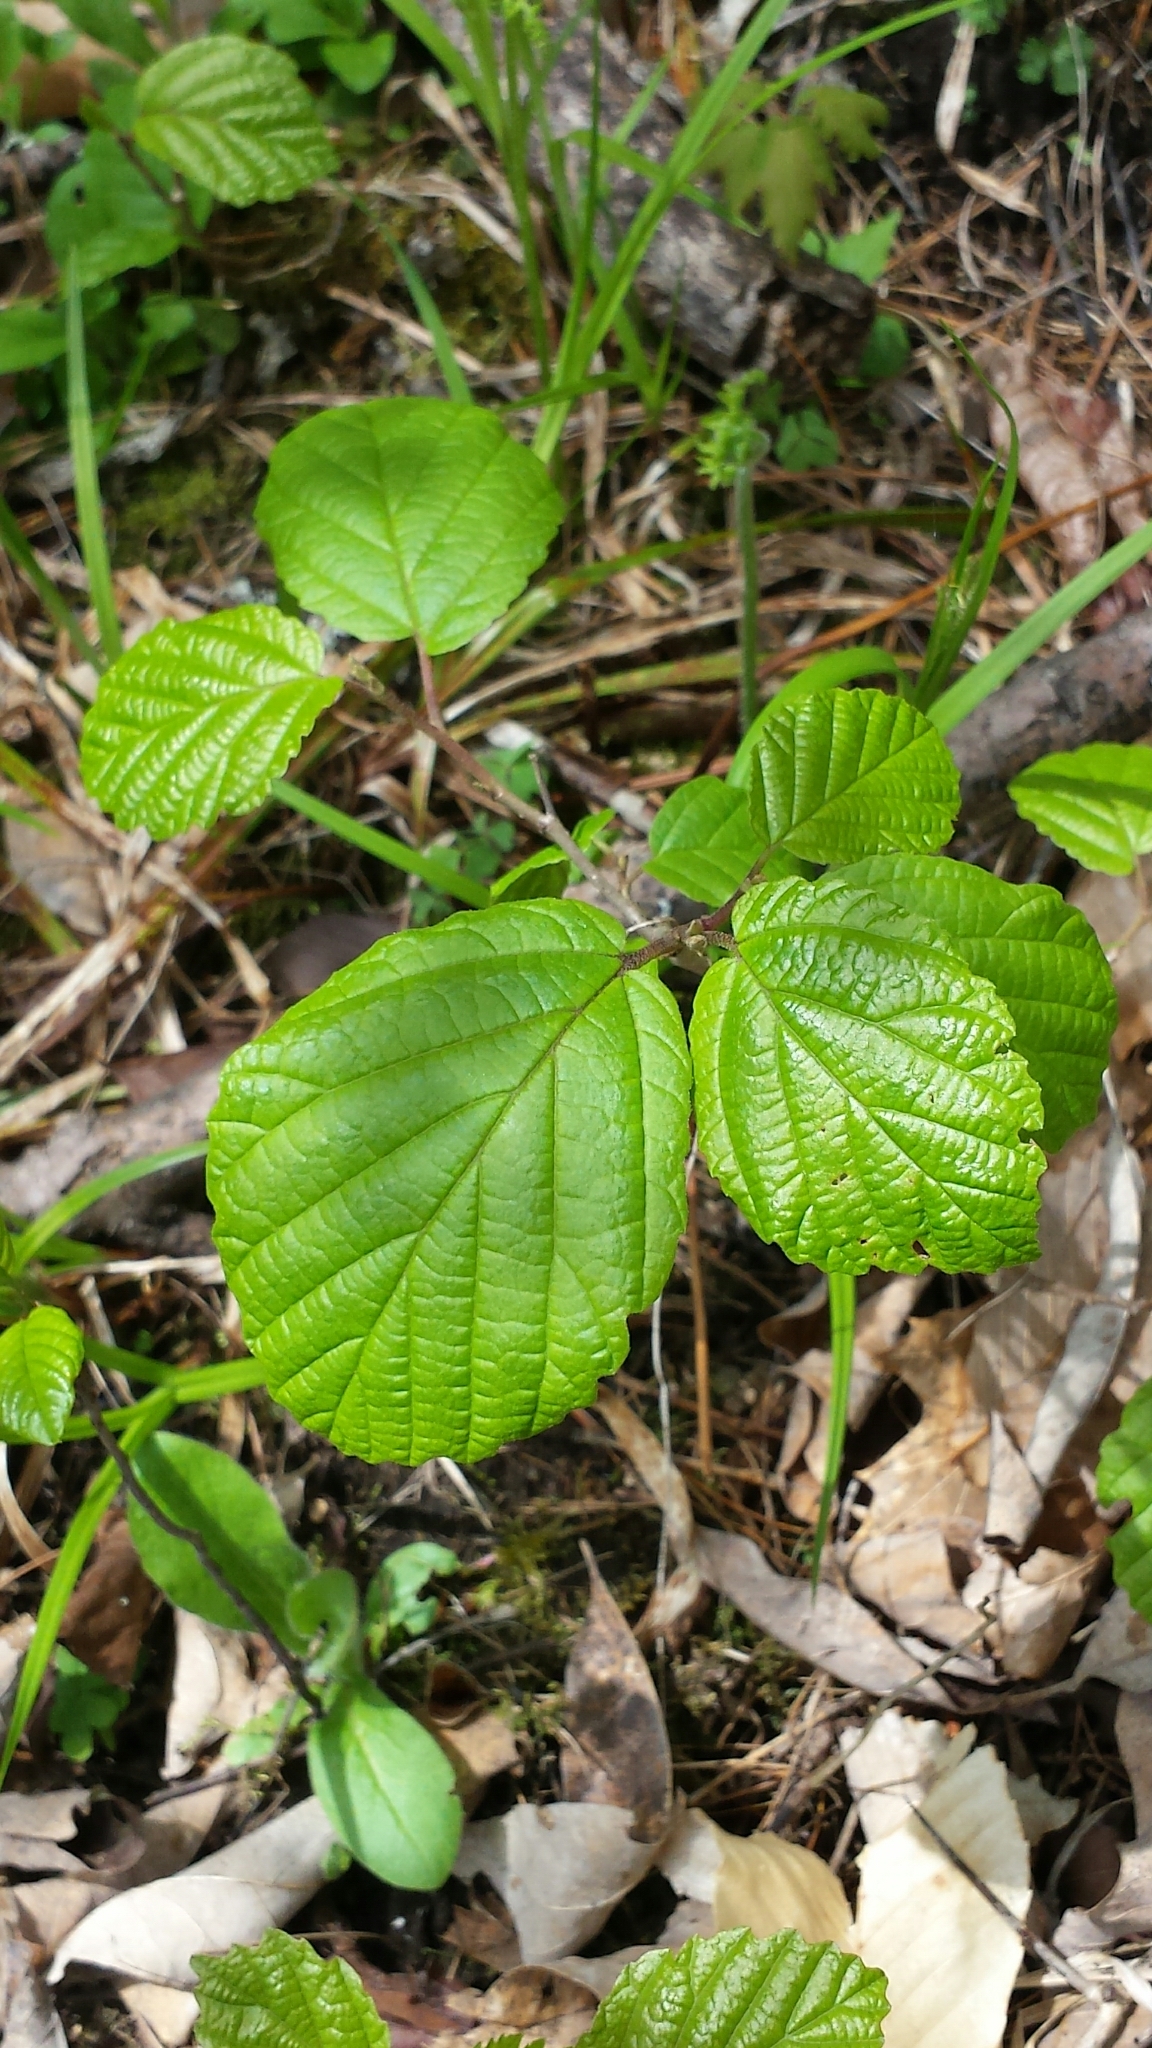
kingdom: Plantae
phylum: Tracheophyta
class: Magnoliopsida
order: Saxifragales
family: Hamamelidaceae
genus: Hamamelis
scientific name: Hamamelis virginiana
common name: Witch-hazel
